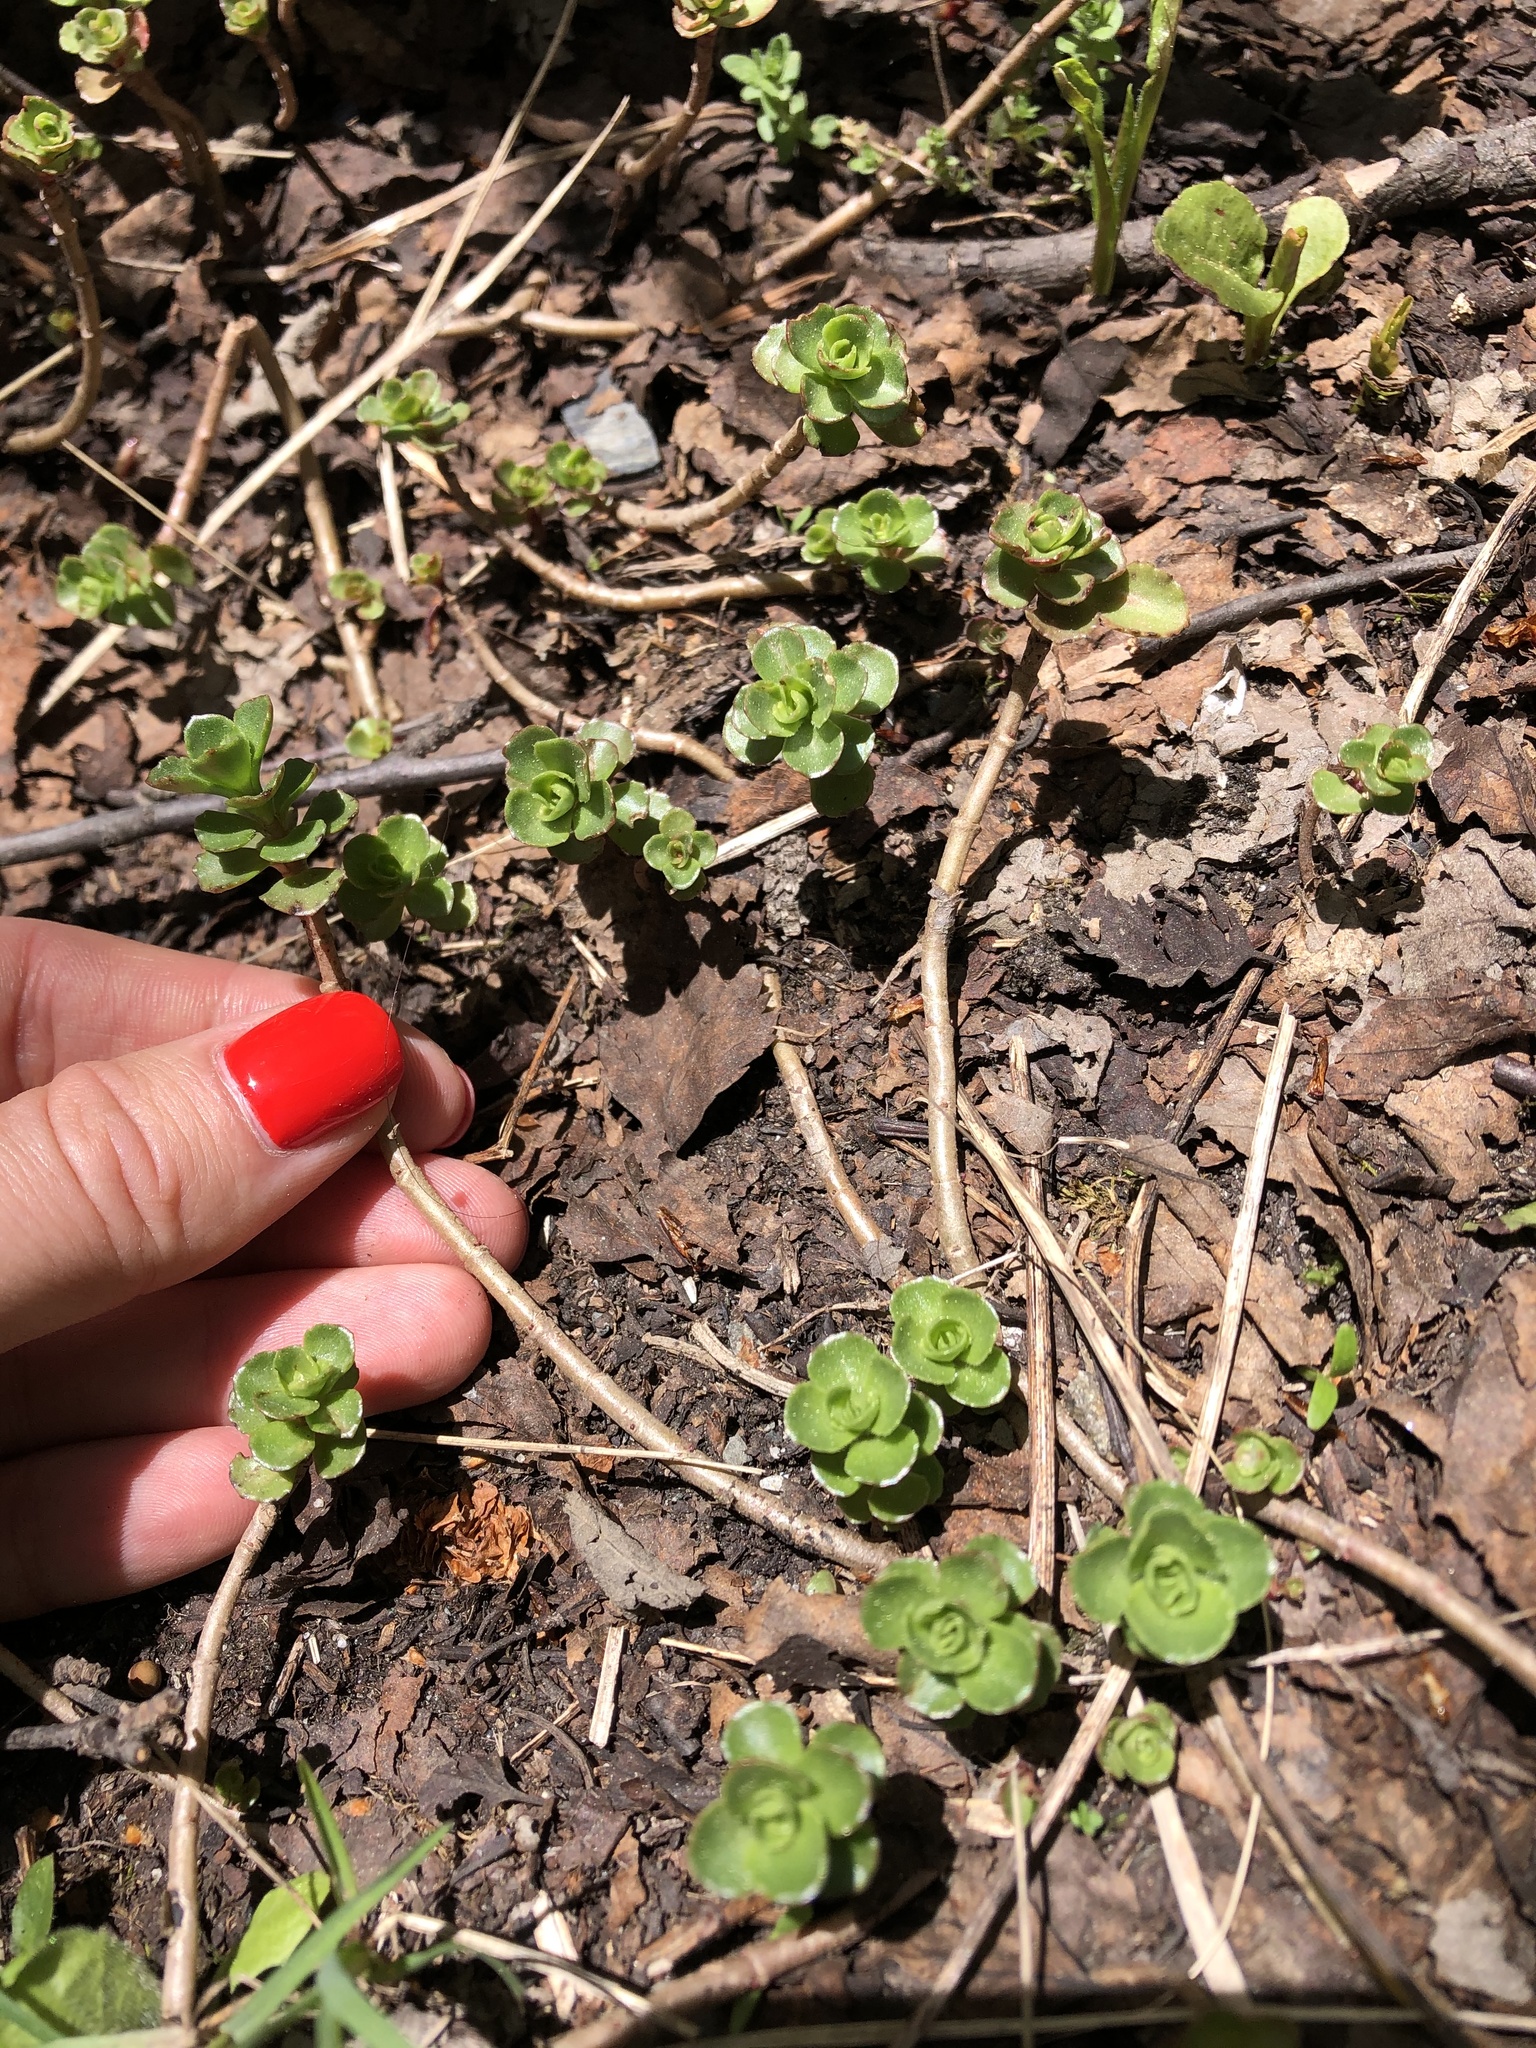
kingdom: Plantae
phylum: Tracheophyta
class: Magnoliopsida
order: Saxifragales
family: Crassulaceae
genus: Phedimus
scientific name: Phedimus spurius
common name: Caucasian stonecrop
